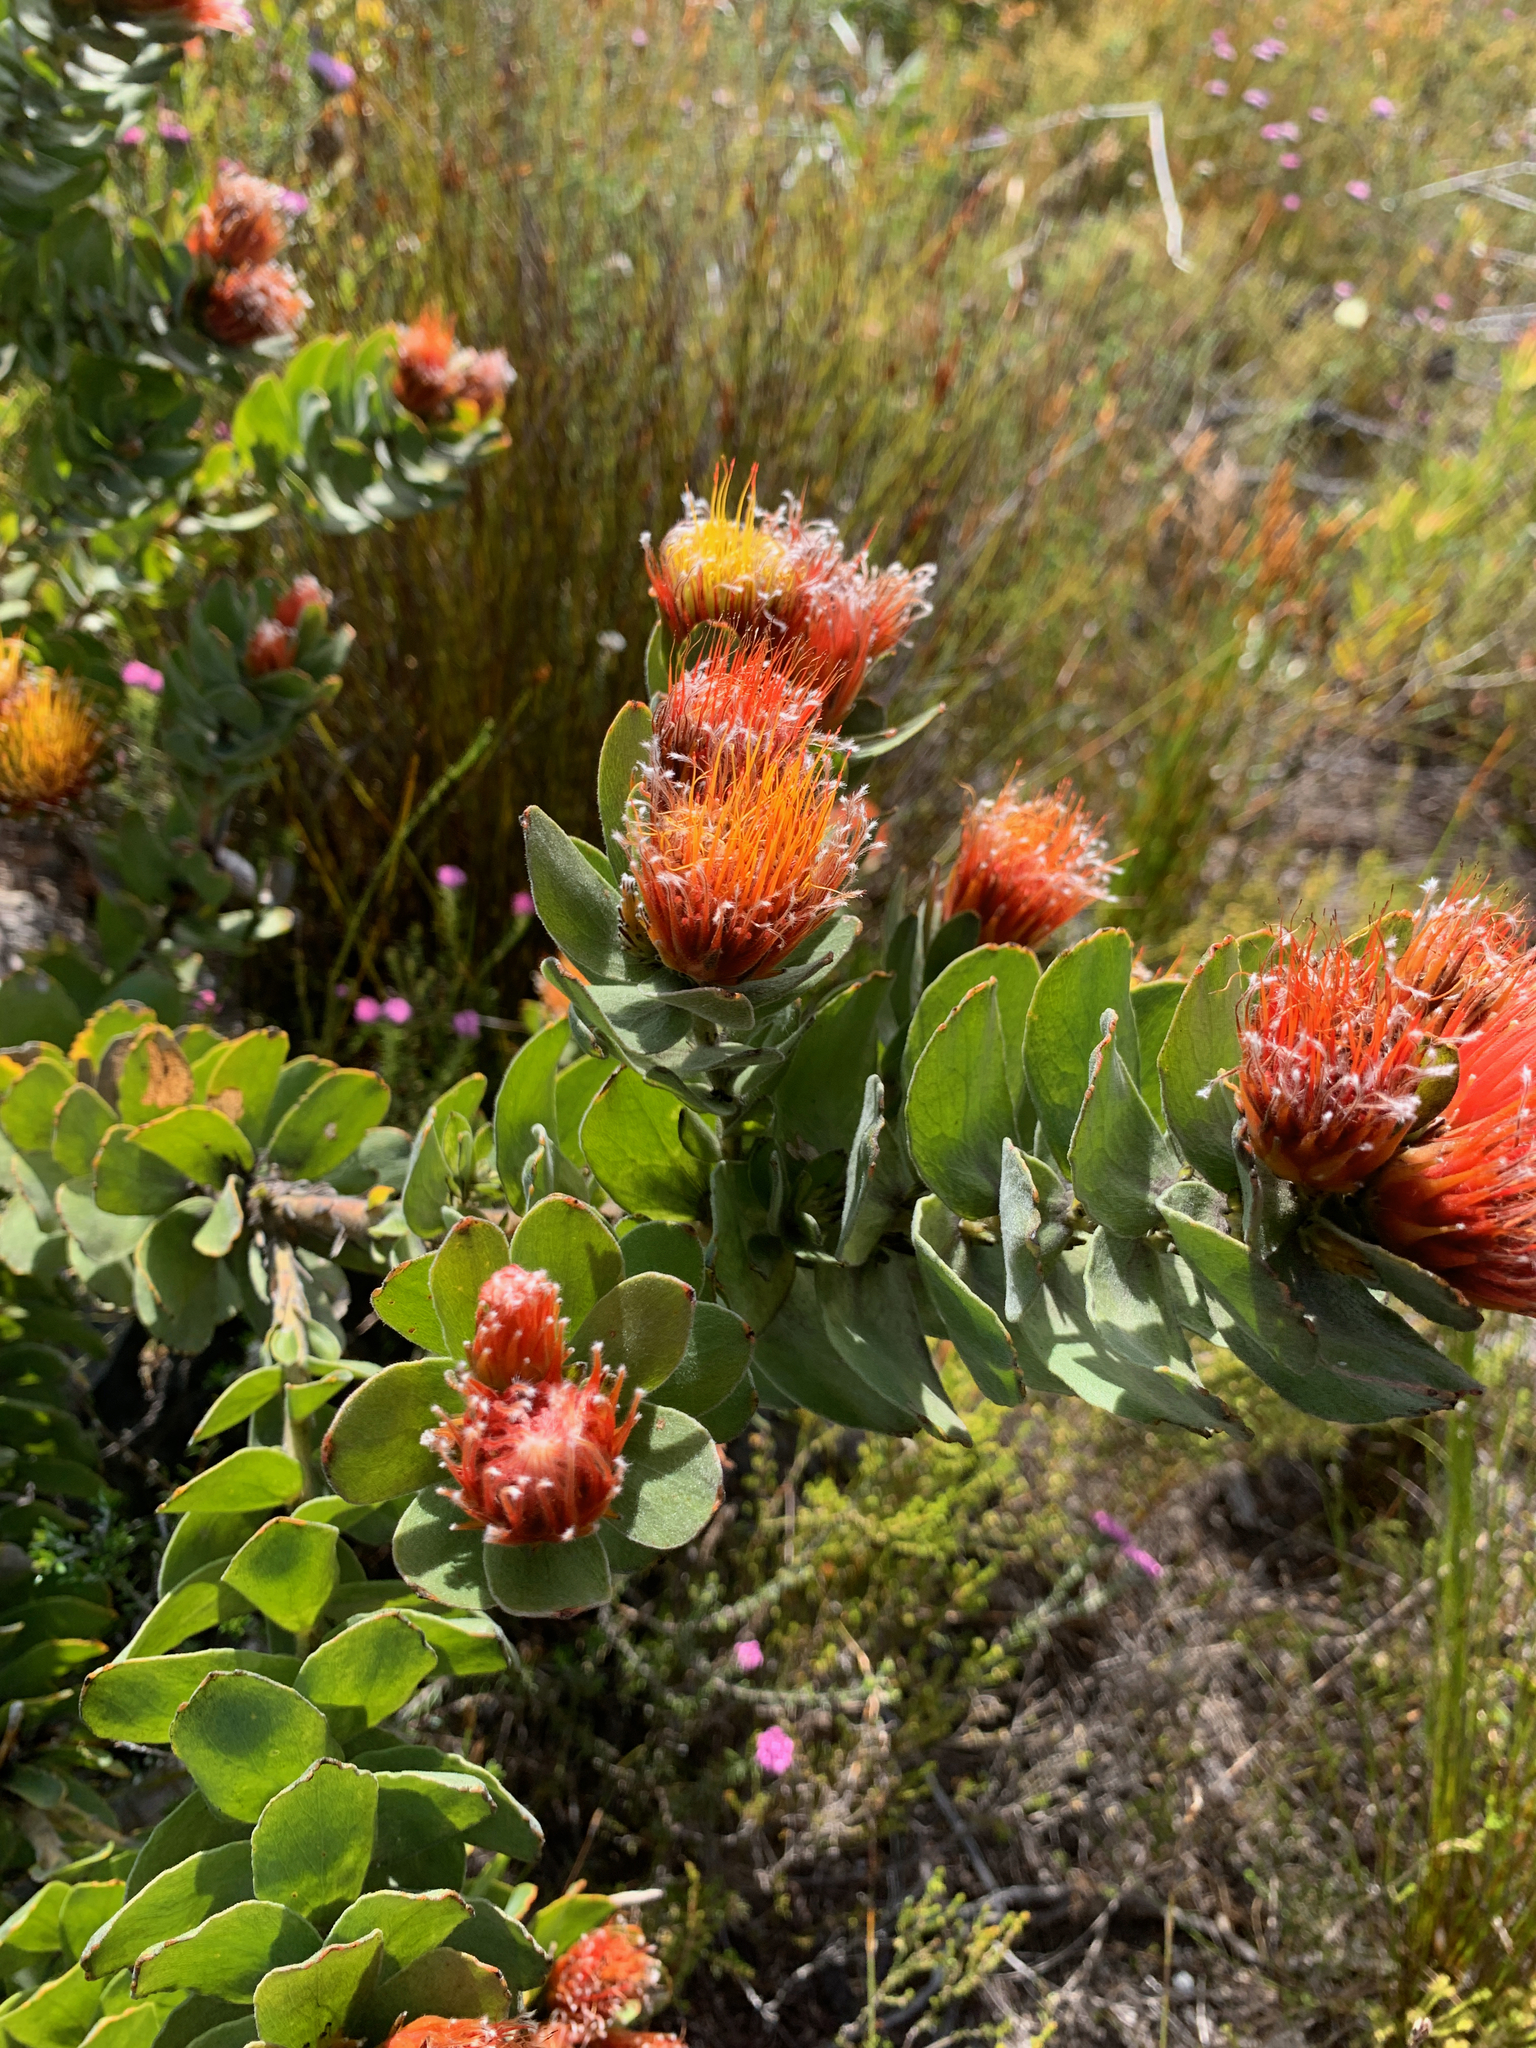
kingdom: Plantae
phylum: Tracheophyta
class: Magnoliopsida
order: Proteales
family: Proteaceae
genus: Leucospermum
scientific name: Leucospermum oleifolium
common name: Matches
